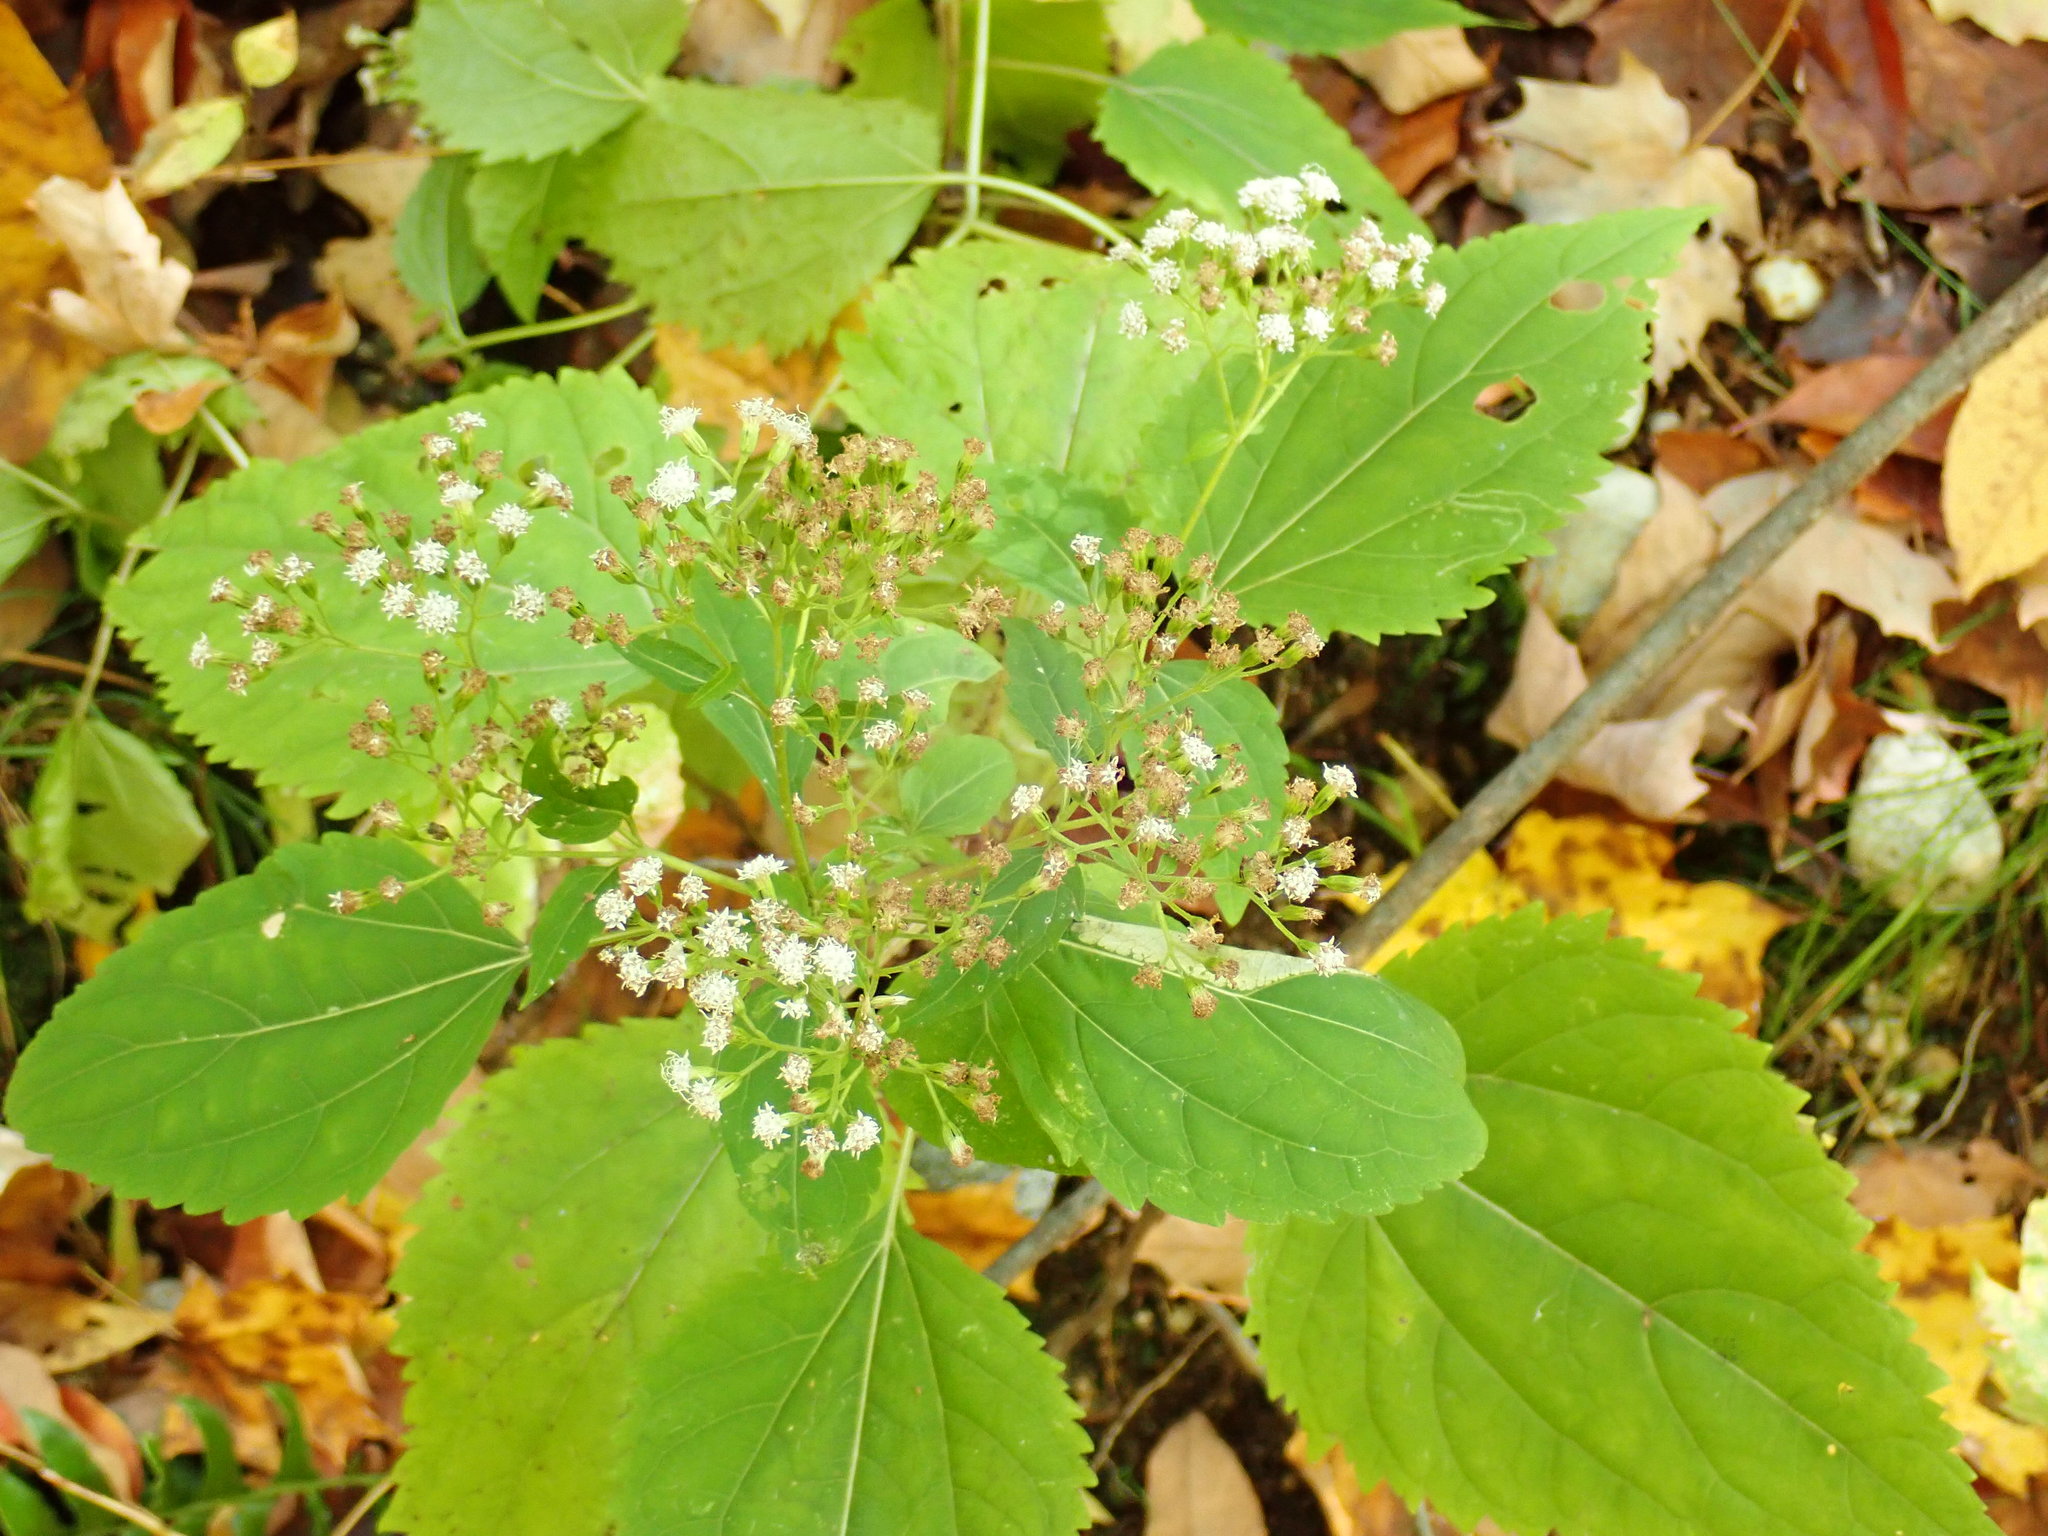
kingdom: Plantae
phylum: Tracheophyta
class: Magnoliopsida
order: Asterales
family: Asteraceae
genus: Ageratina
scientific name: Ageratina altissima
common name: White snakeroot
